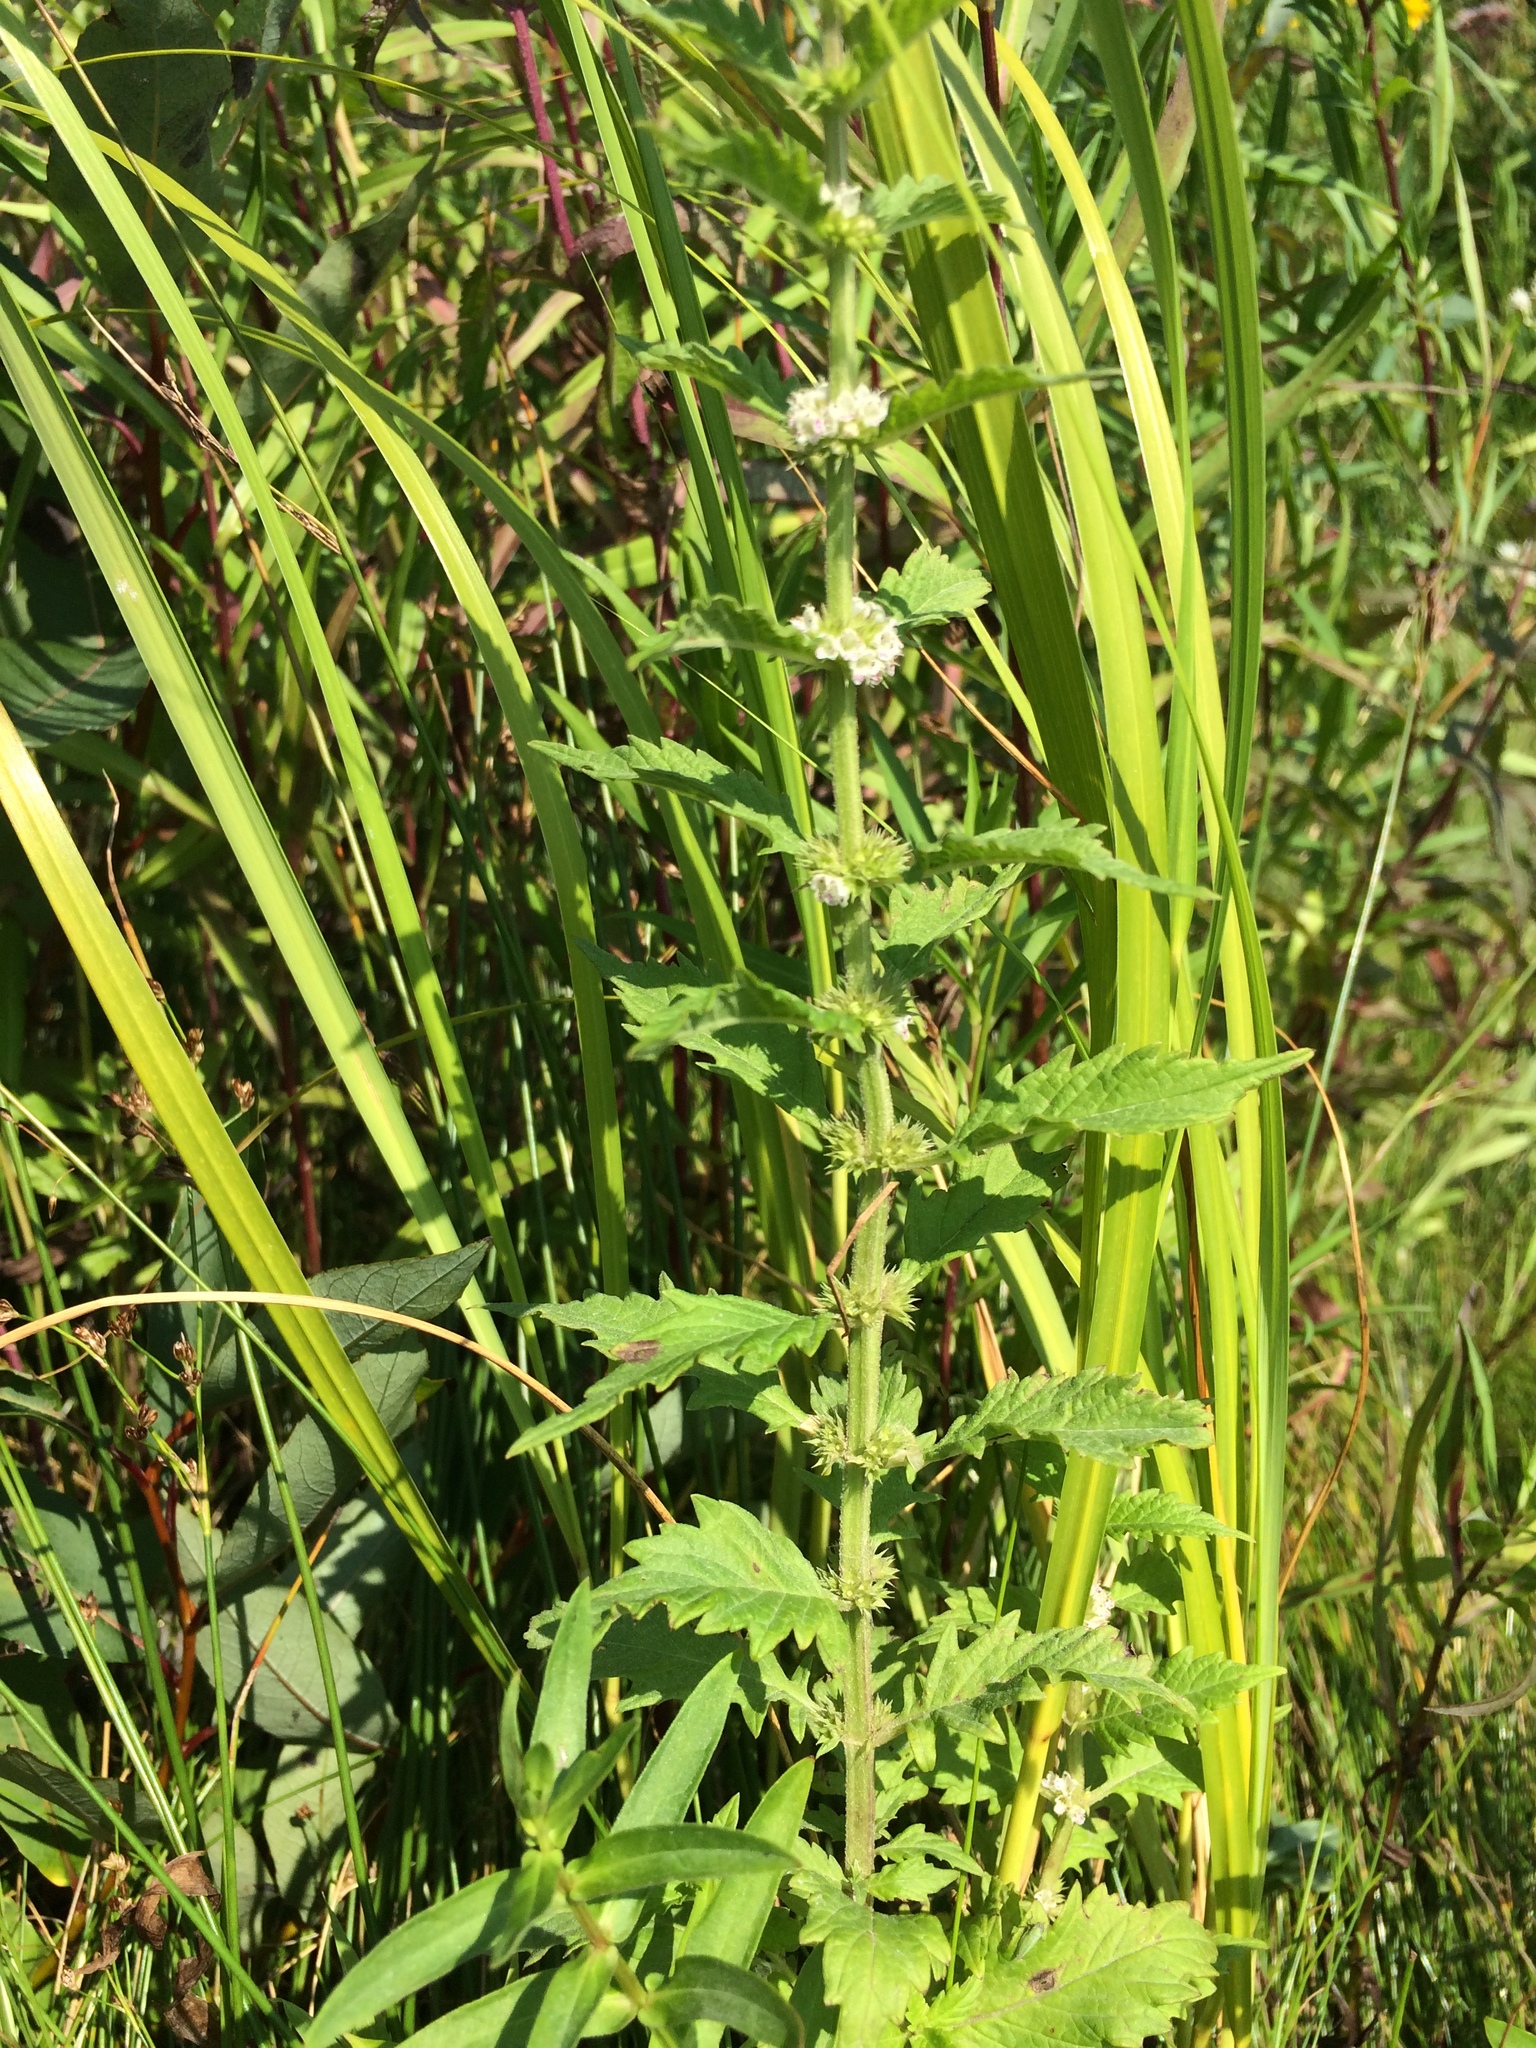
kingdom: Plantae
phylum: Tracheophyta
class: Magnoliopsida
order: Lamiales
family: Lamiaceae
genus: Lycopus
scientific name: Lycopus europaeus
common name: European bugleweed
